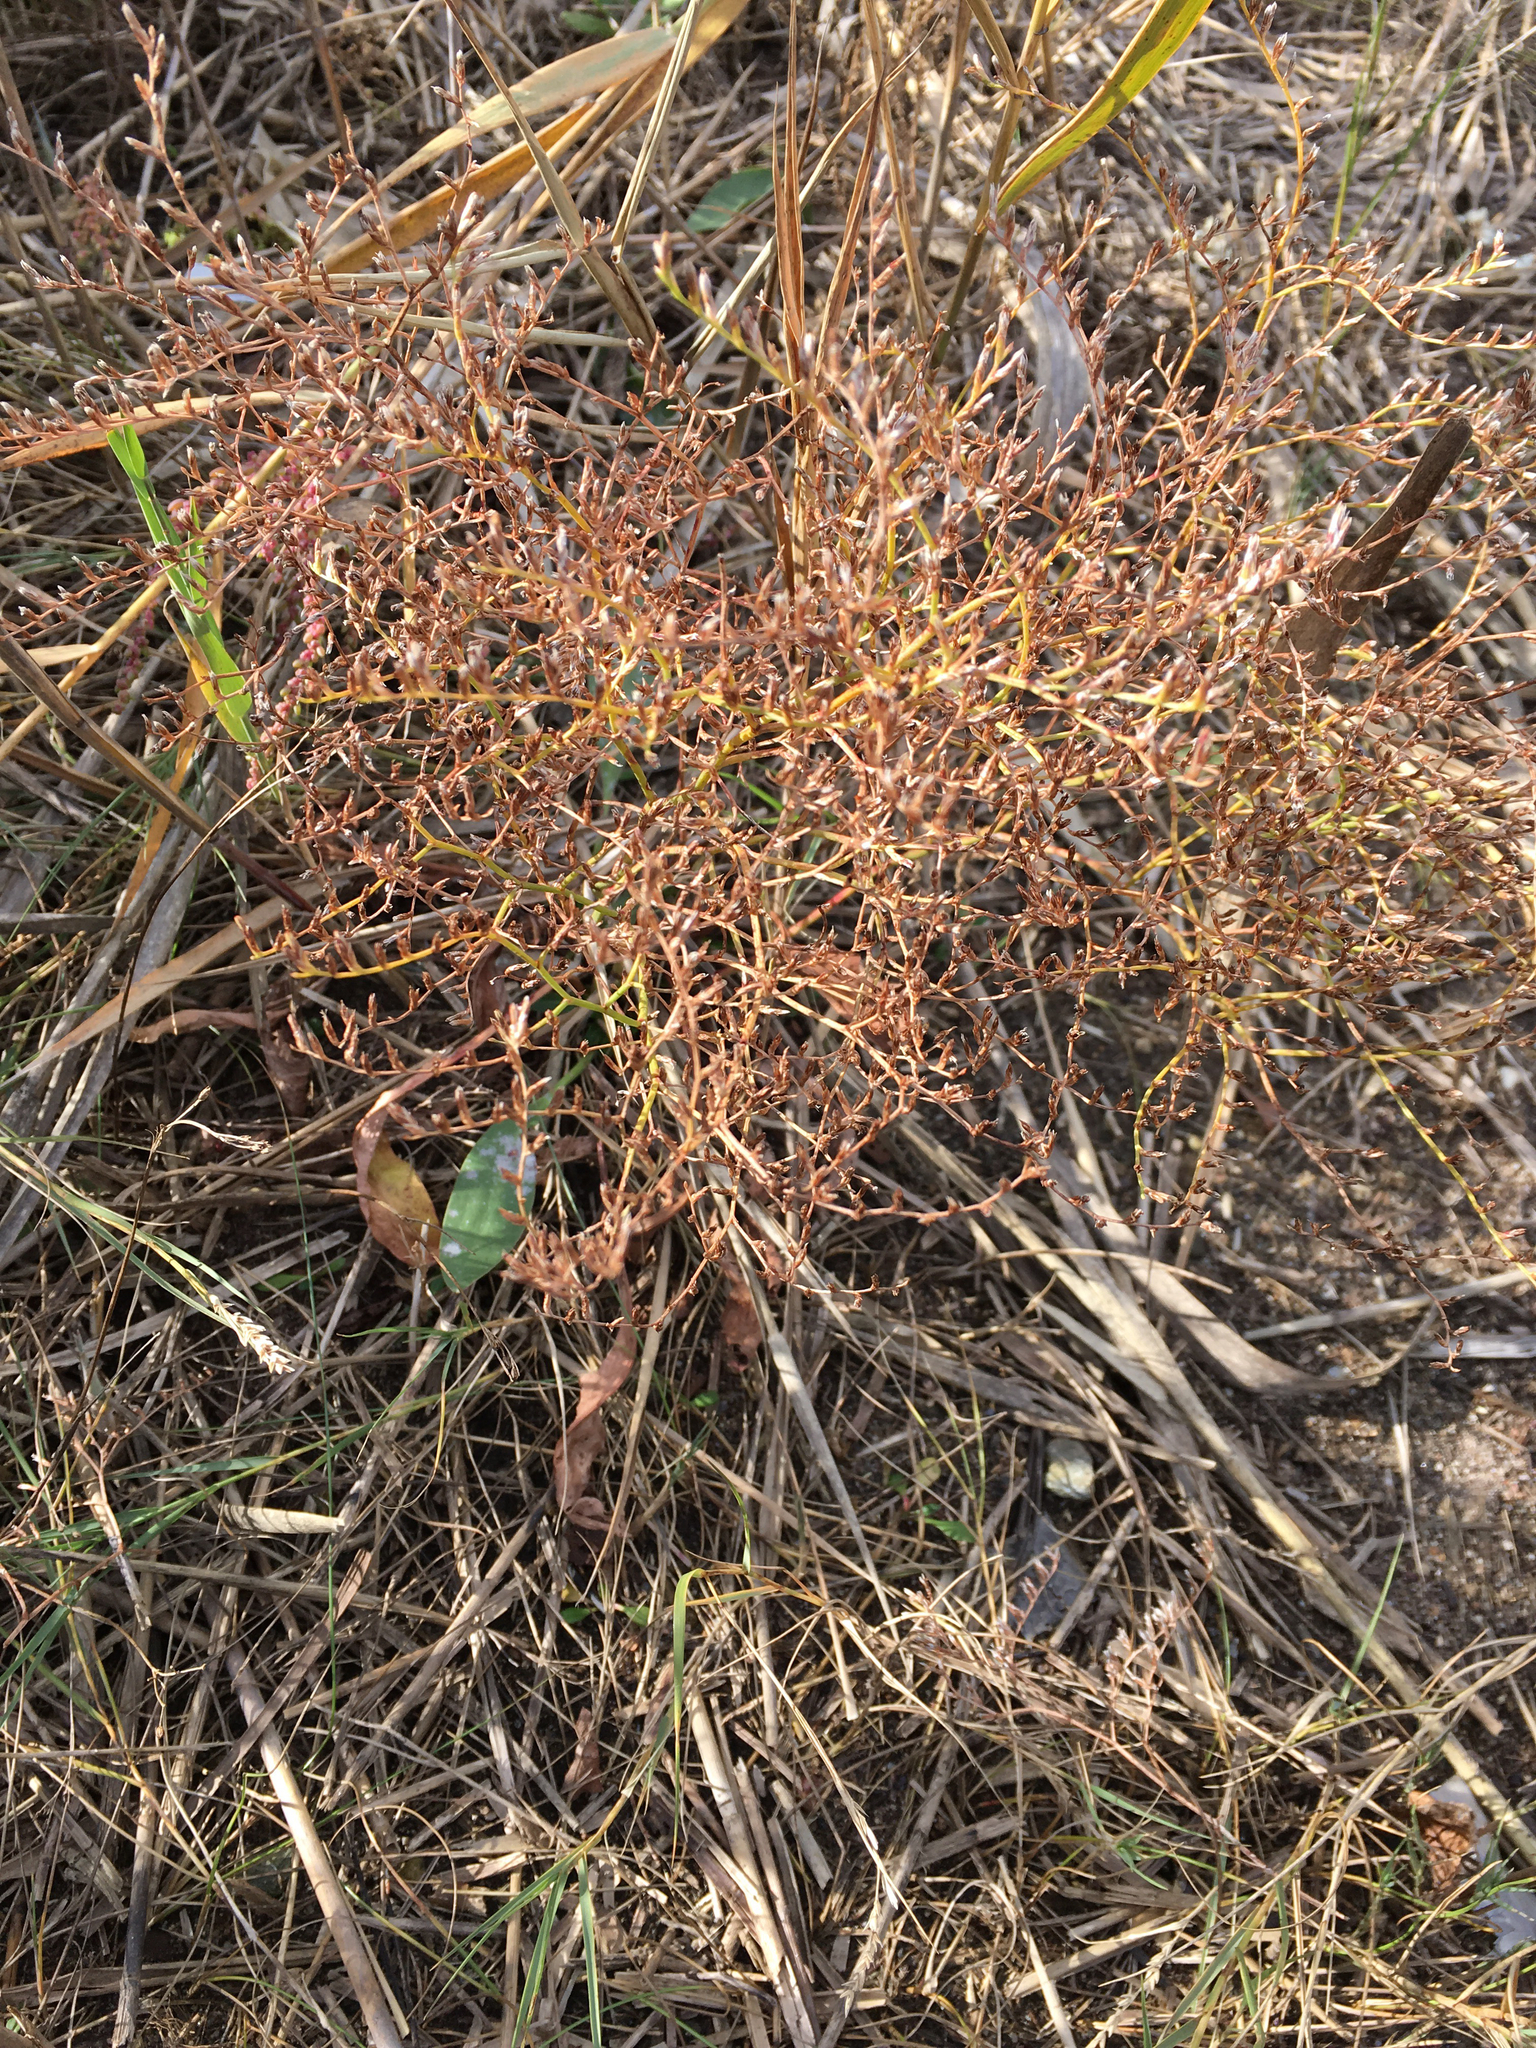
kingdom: Plantae
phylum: Tracheophyta
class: Magnoliopsida
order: Caryophyllales
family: Plumbaginaceae
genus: Limonium
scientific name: Limonium carolinianum
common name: Carolina sea lavender
